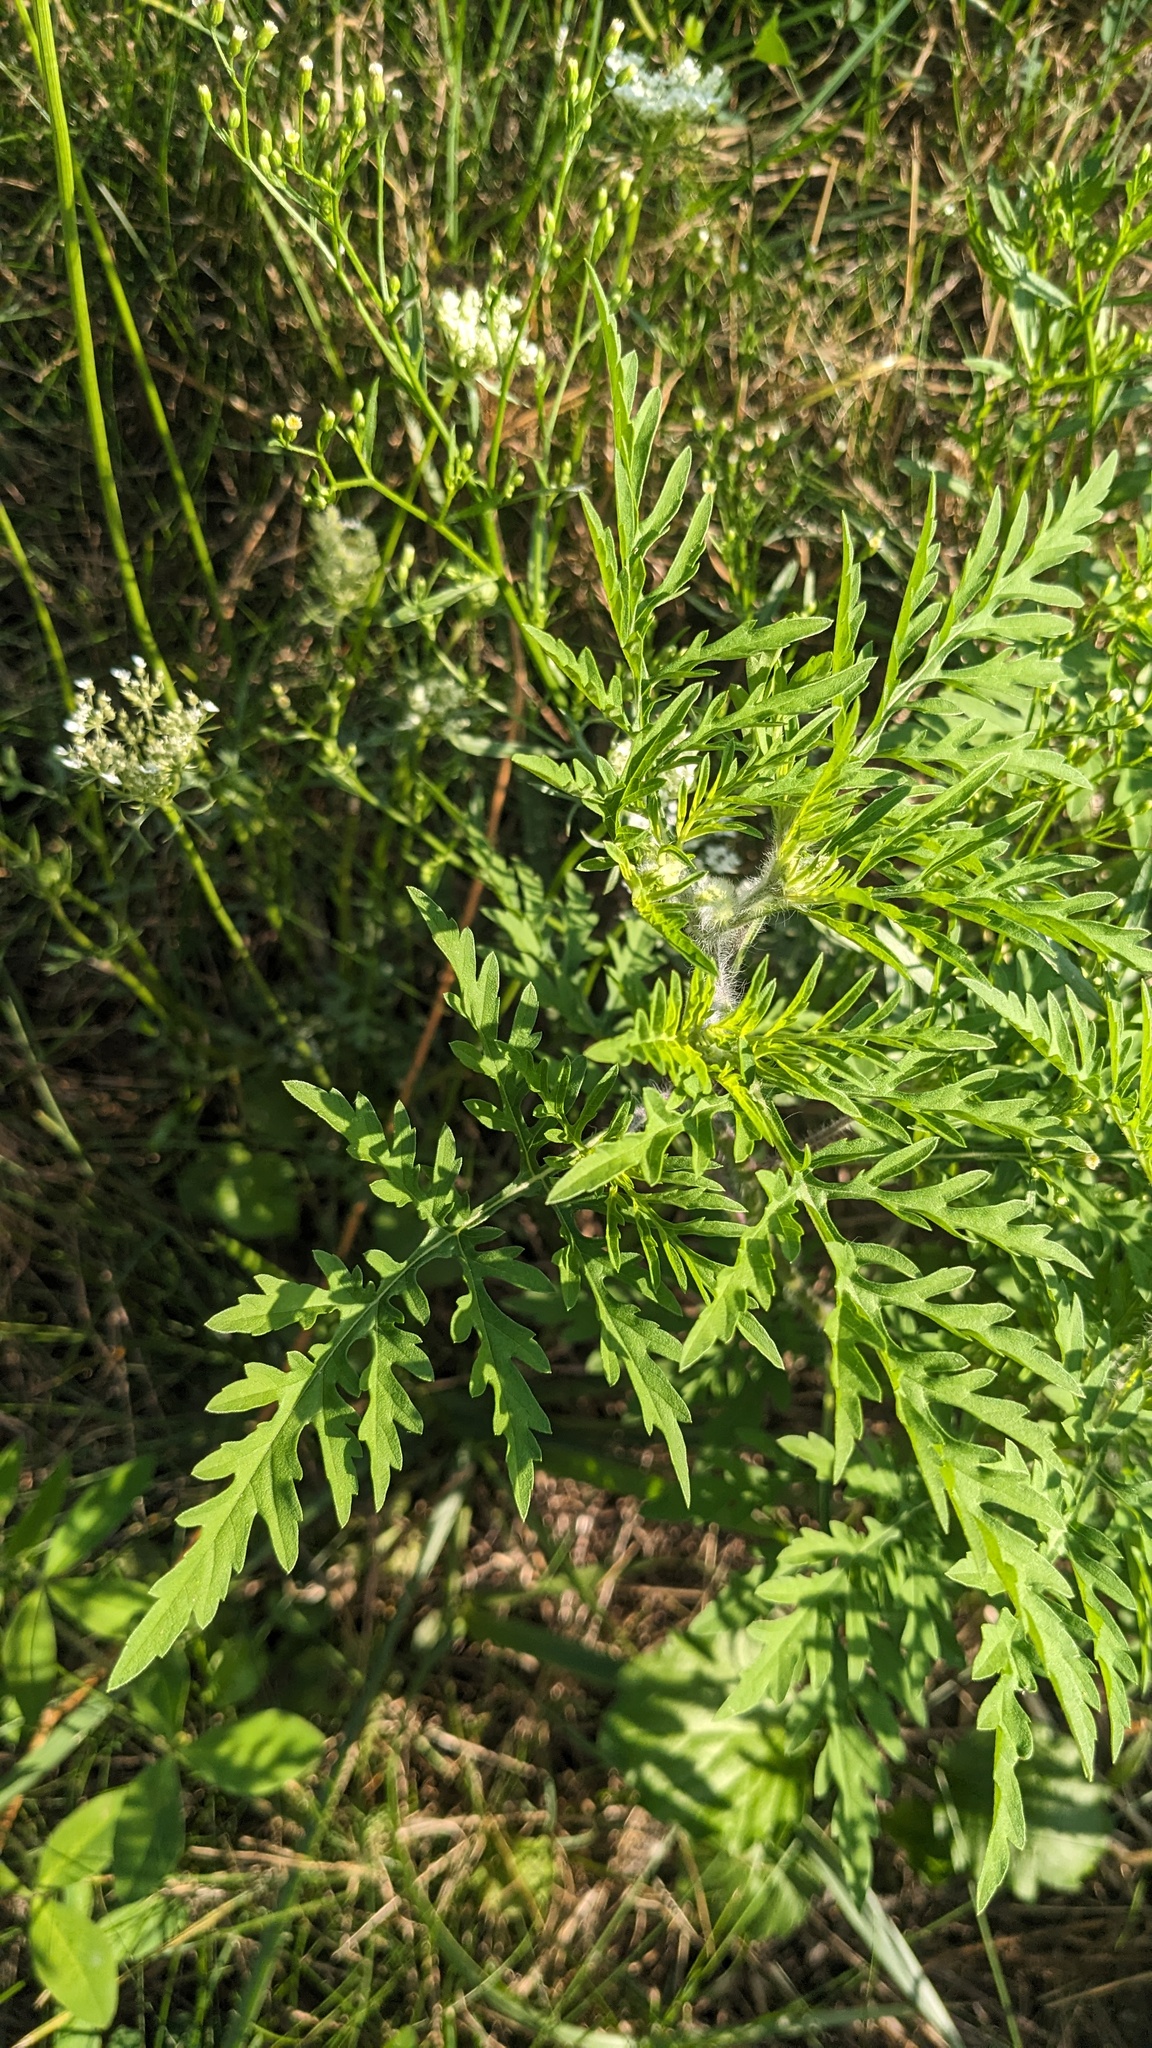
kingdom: Plantae
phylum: Tracheophyta
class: Magnoliopsida
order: Asterales
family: Asteraceae
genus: Ambrosia
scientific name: Ambrosia artemisiifolia
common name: Annual ragweed
